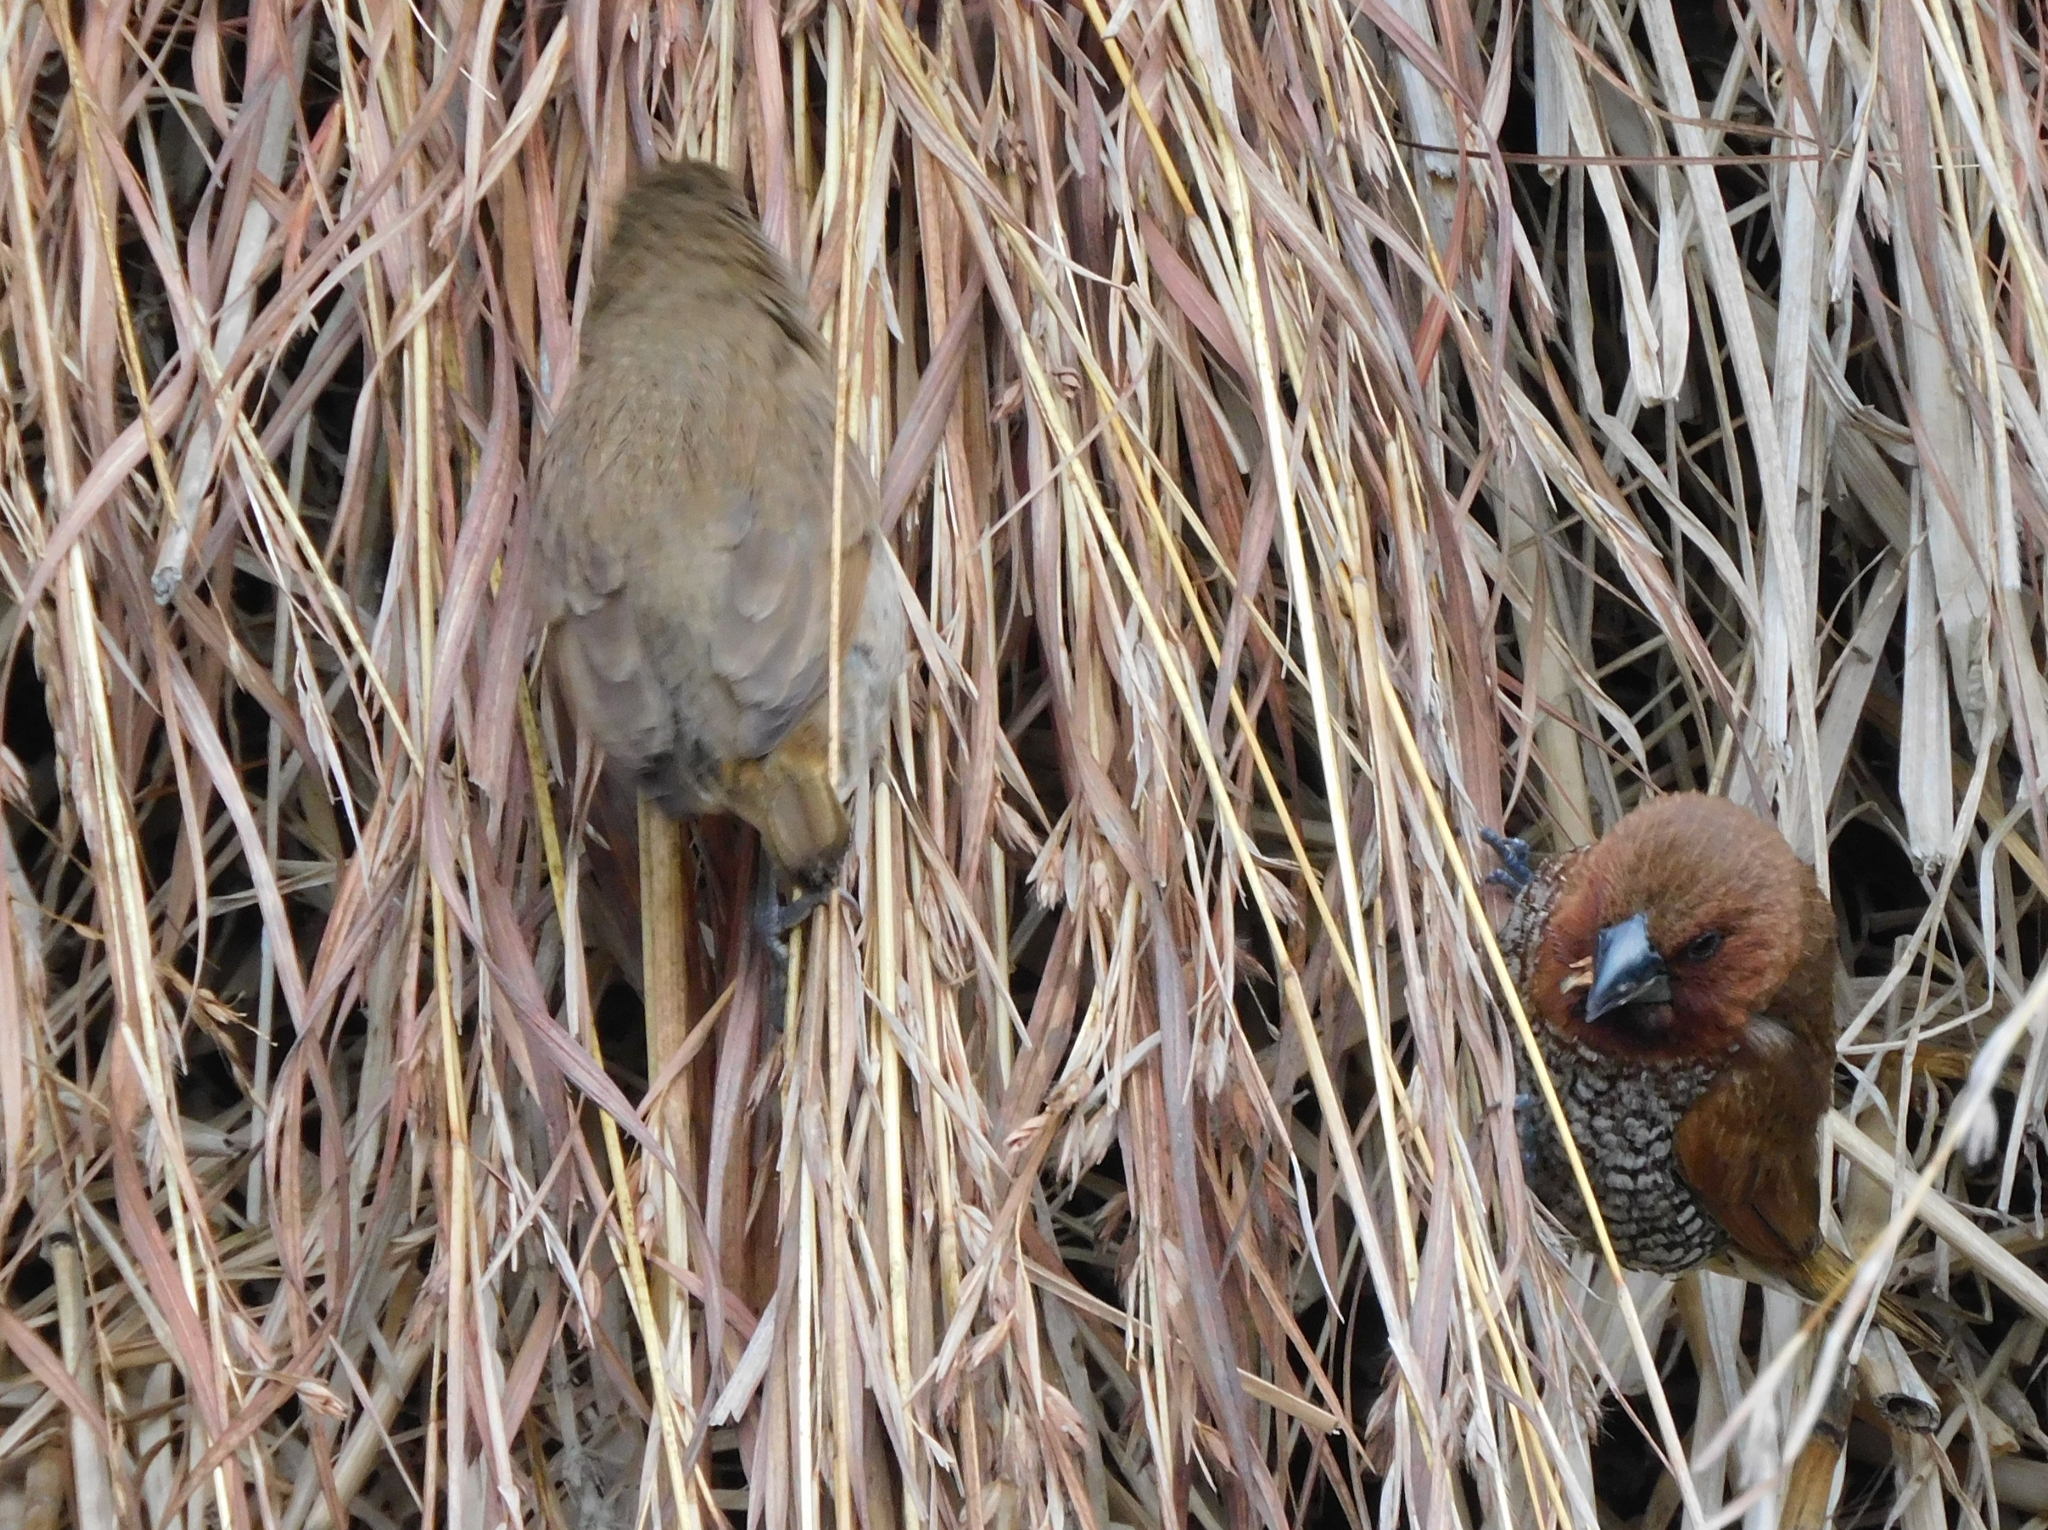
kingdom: Animalia
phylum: Chordata
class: Aves
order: Passeriformes
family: Estrildidae
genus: Lonchura
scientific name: Lonchura punctulata
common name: Scaly-breasted munia
